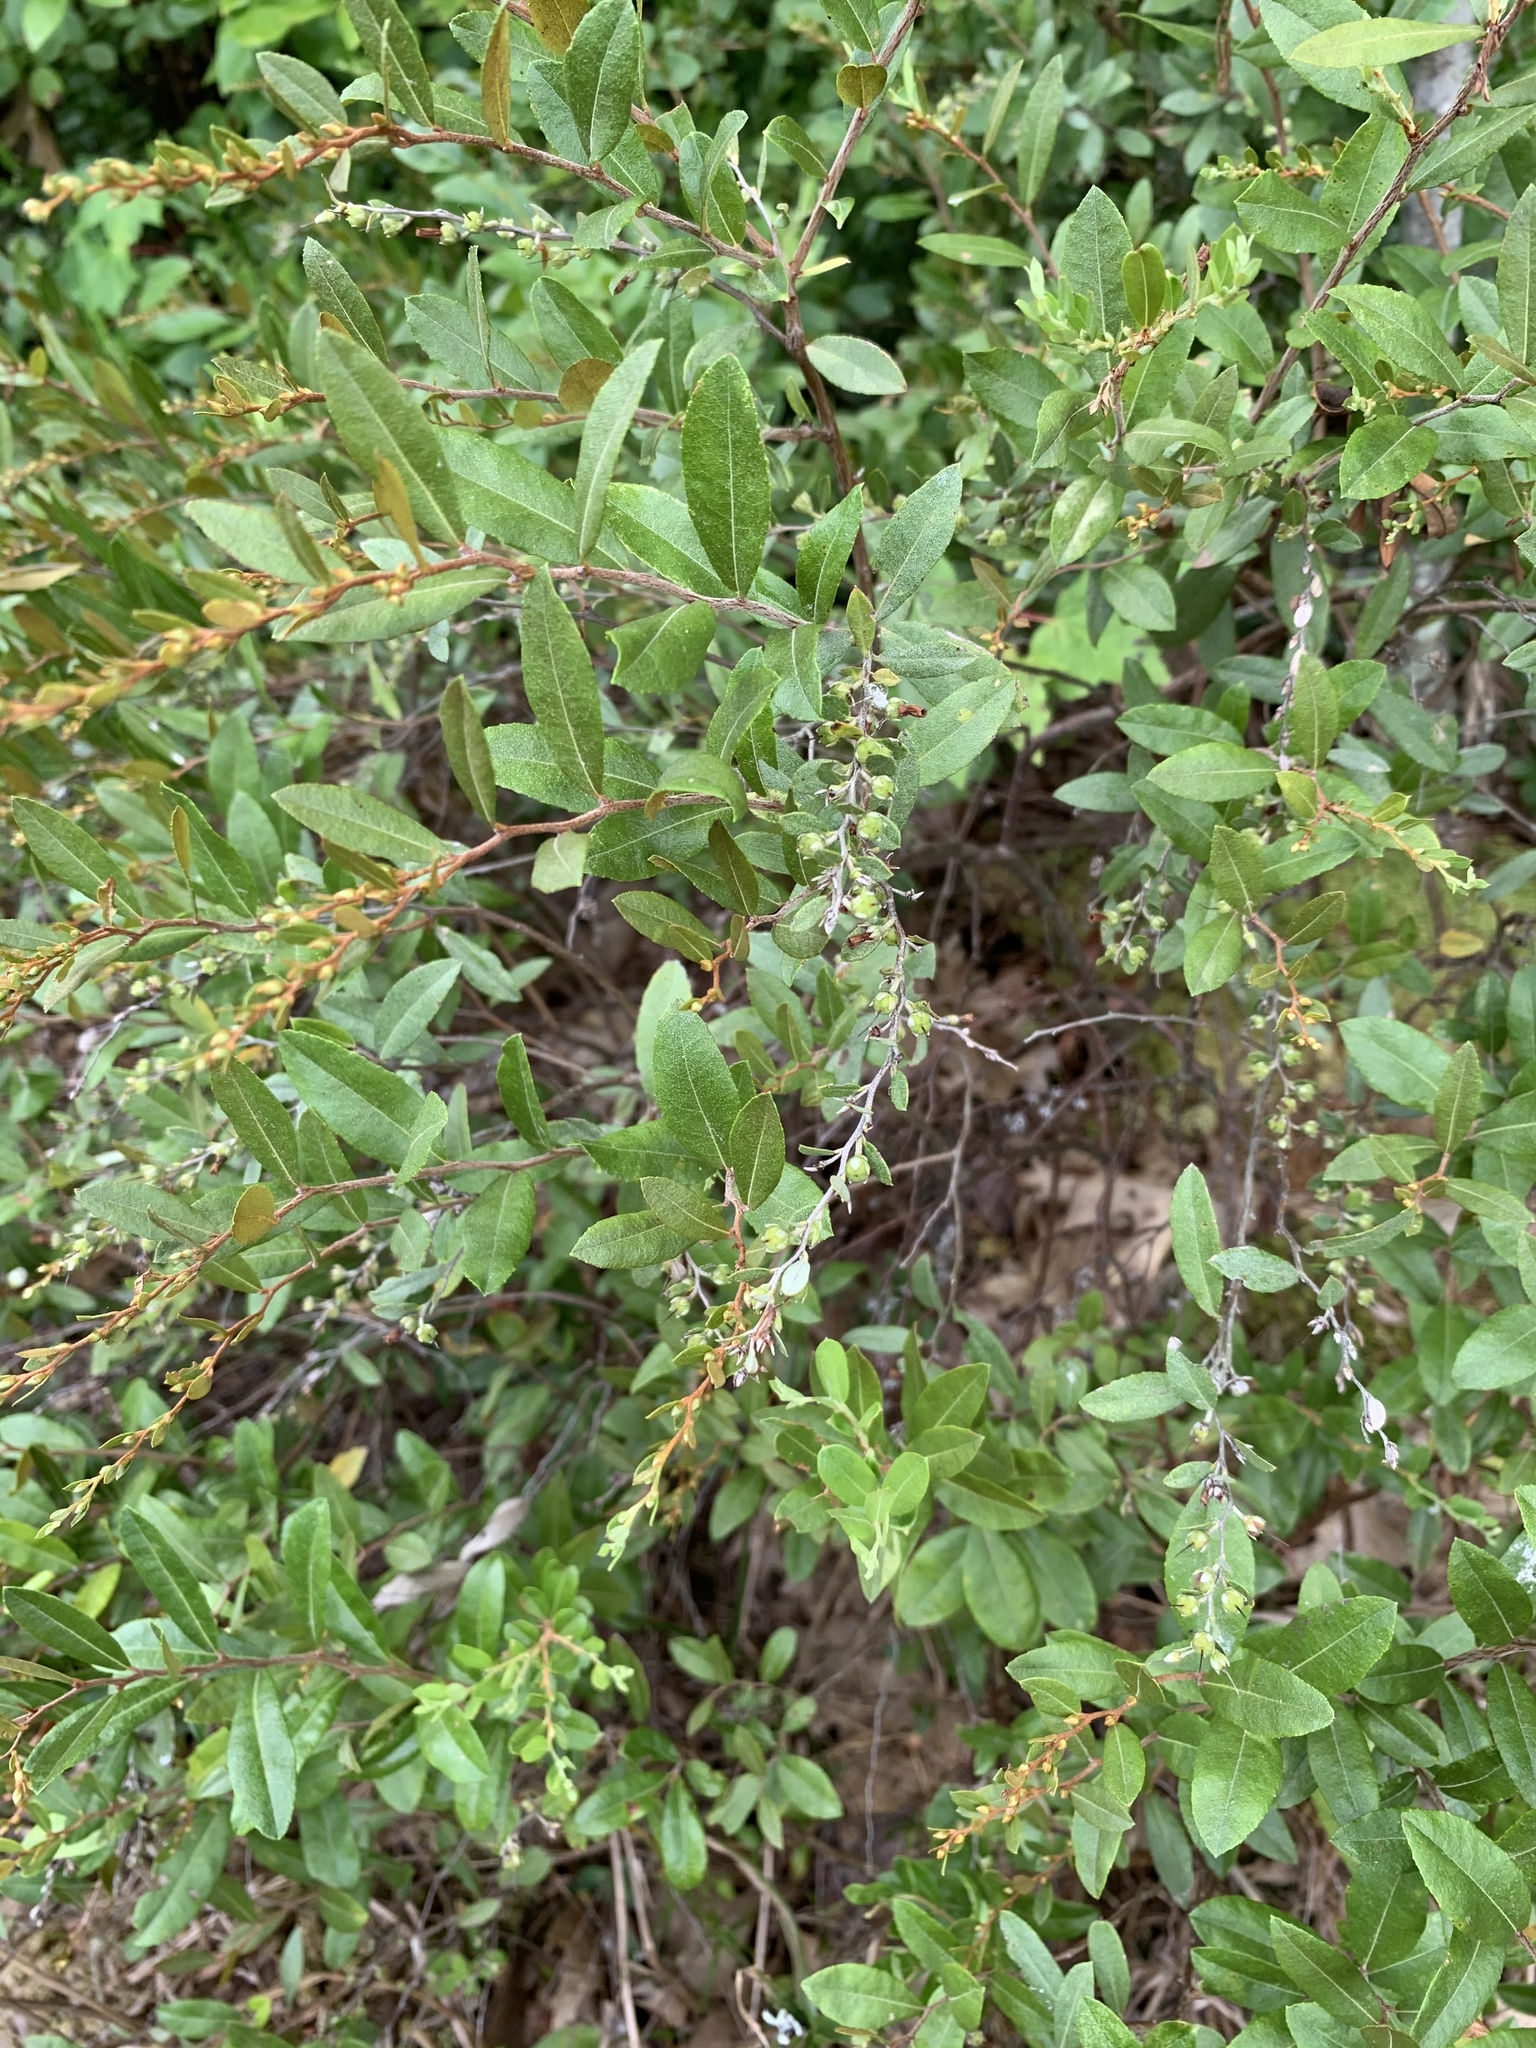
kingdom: Plantae
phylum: Tracheophyta
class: Magnoliopsida
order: Ericales
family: Ericaceae
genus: Chamaedaphne
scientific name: Chamaedaphne calyculata
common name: Leatherleaf
